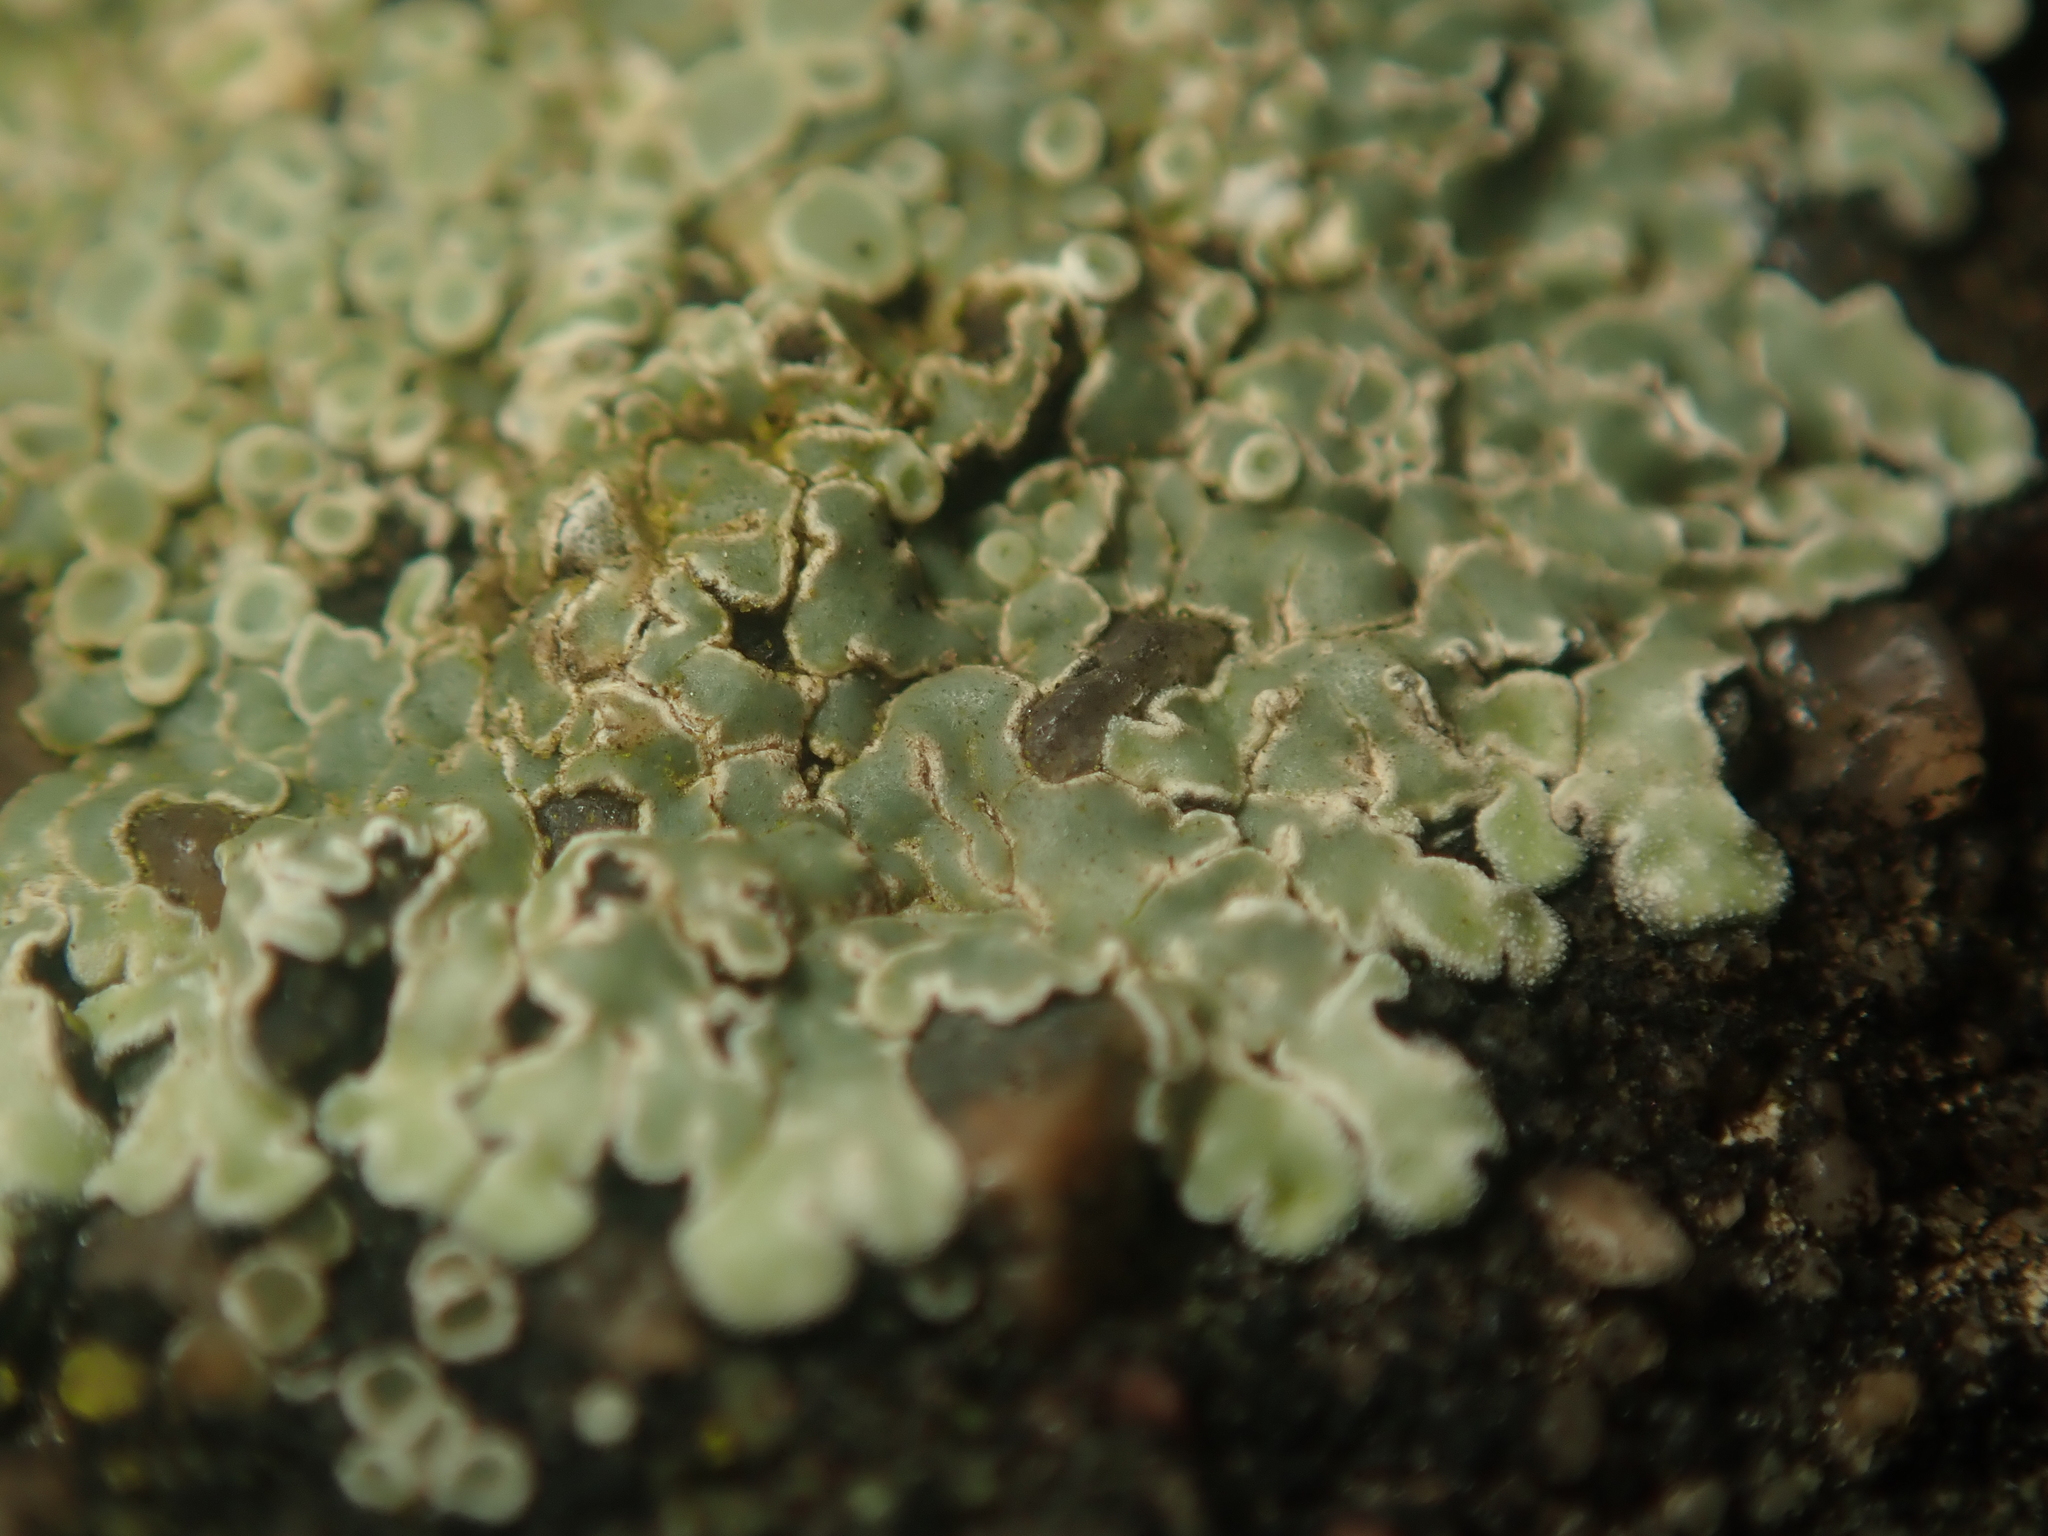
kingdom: Fungi
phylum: Ascomycota
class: Lecanoromycetes
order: Lecanorales
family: Lecanoraceae
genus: Protoparmeliopsis
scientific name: Protoparmeliopsis muralis
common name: Stonewall rim lichen
